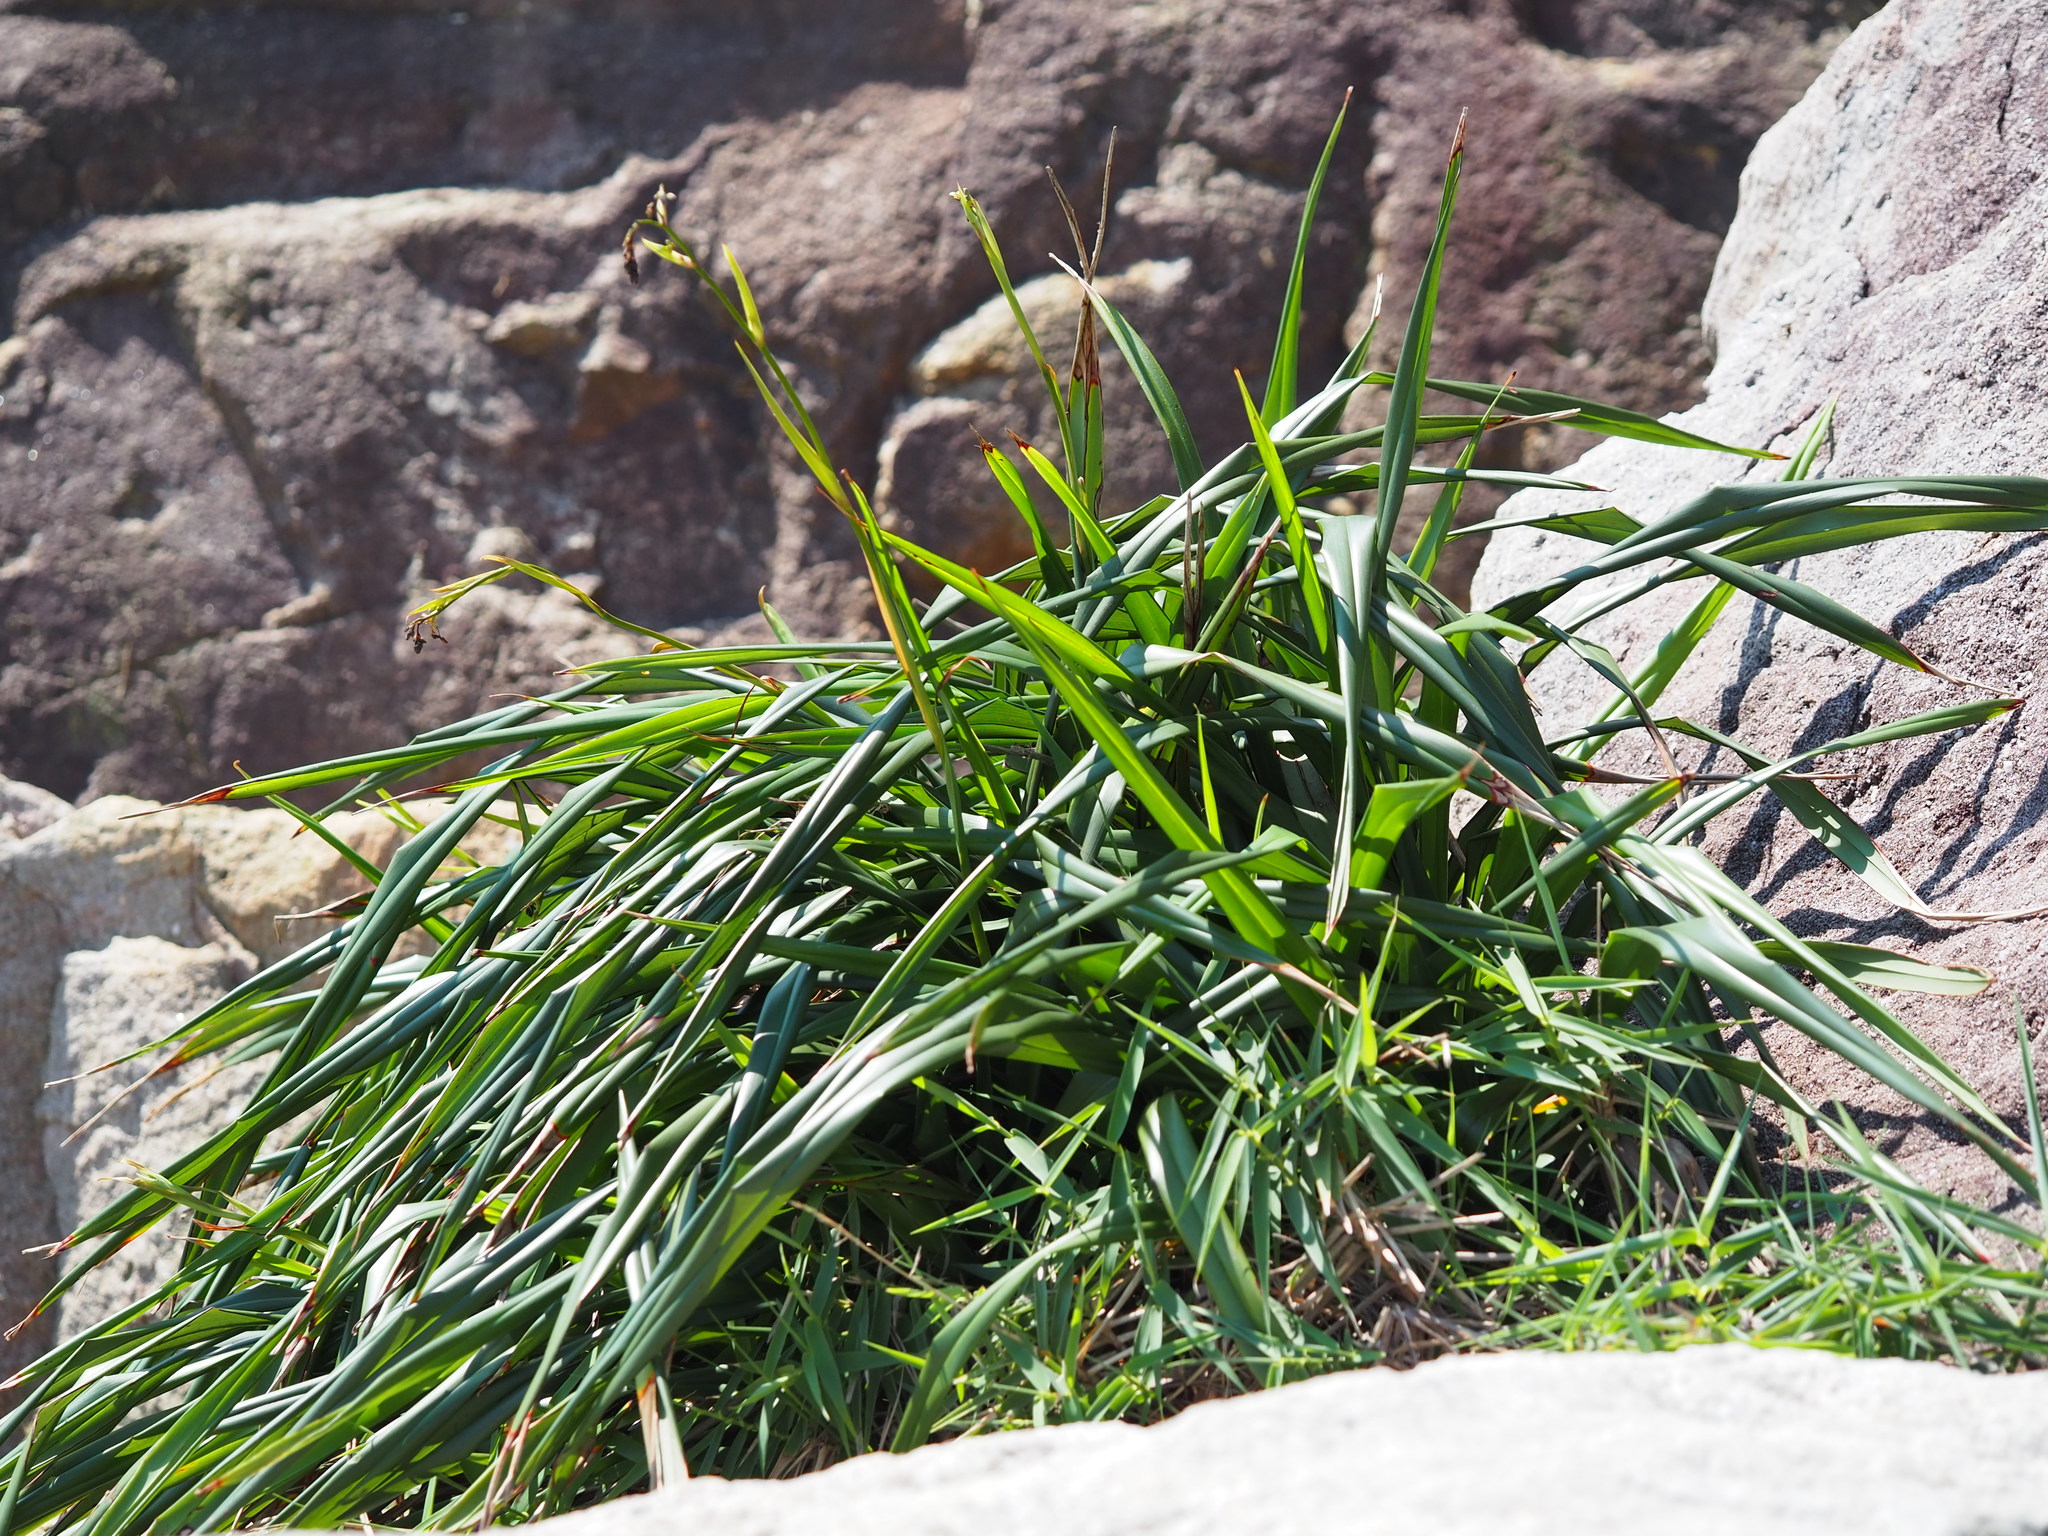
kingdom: Plantae
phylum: Tracheophyta
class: Liliopsida
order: Asparagales
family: Asphodelaceae
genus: Dianella
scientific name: Dianella ensifolia
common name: New zealand lilyplant
